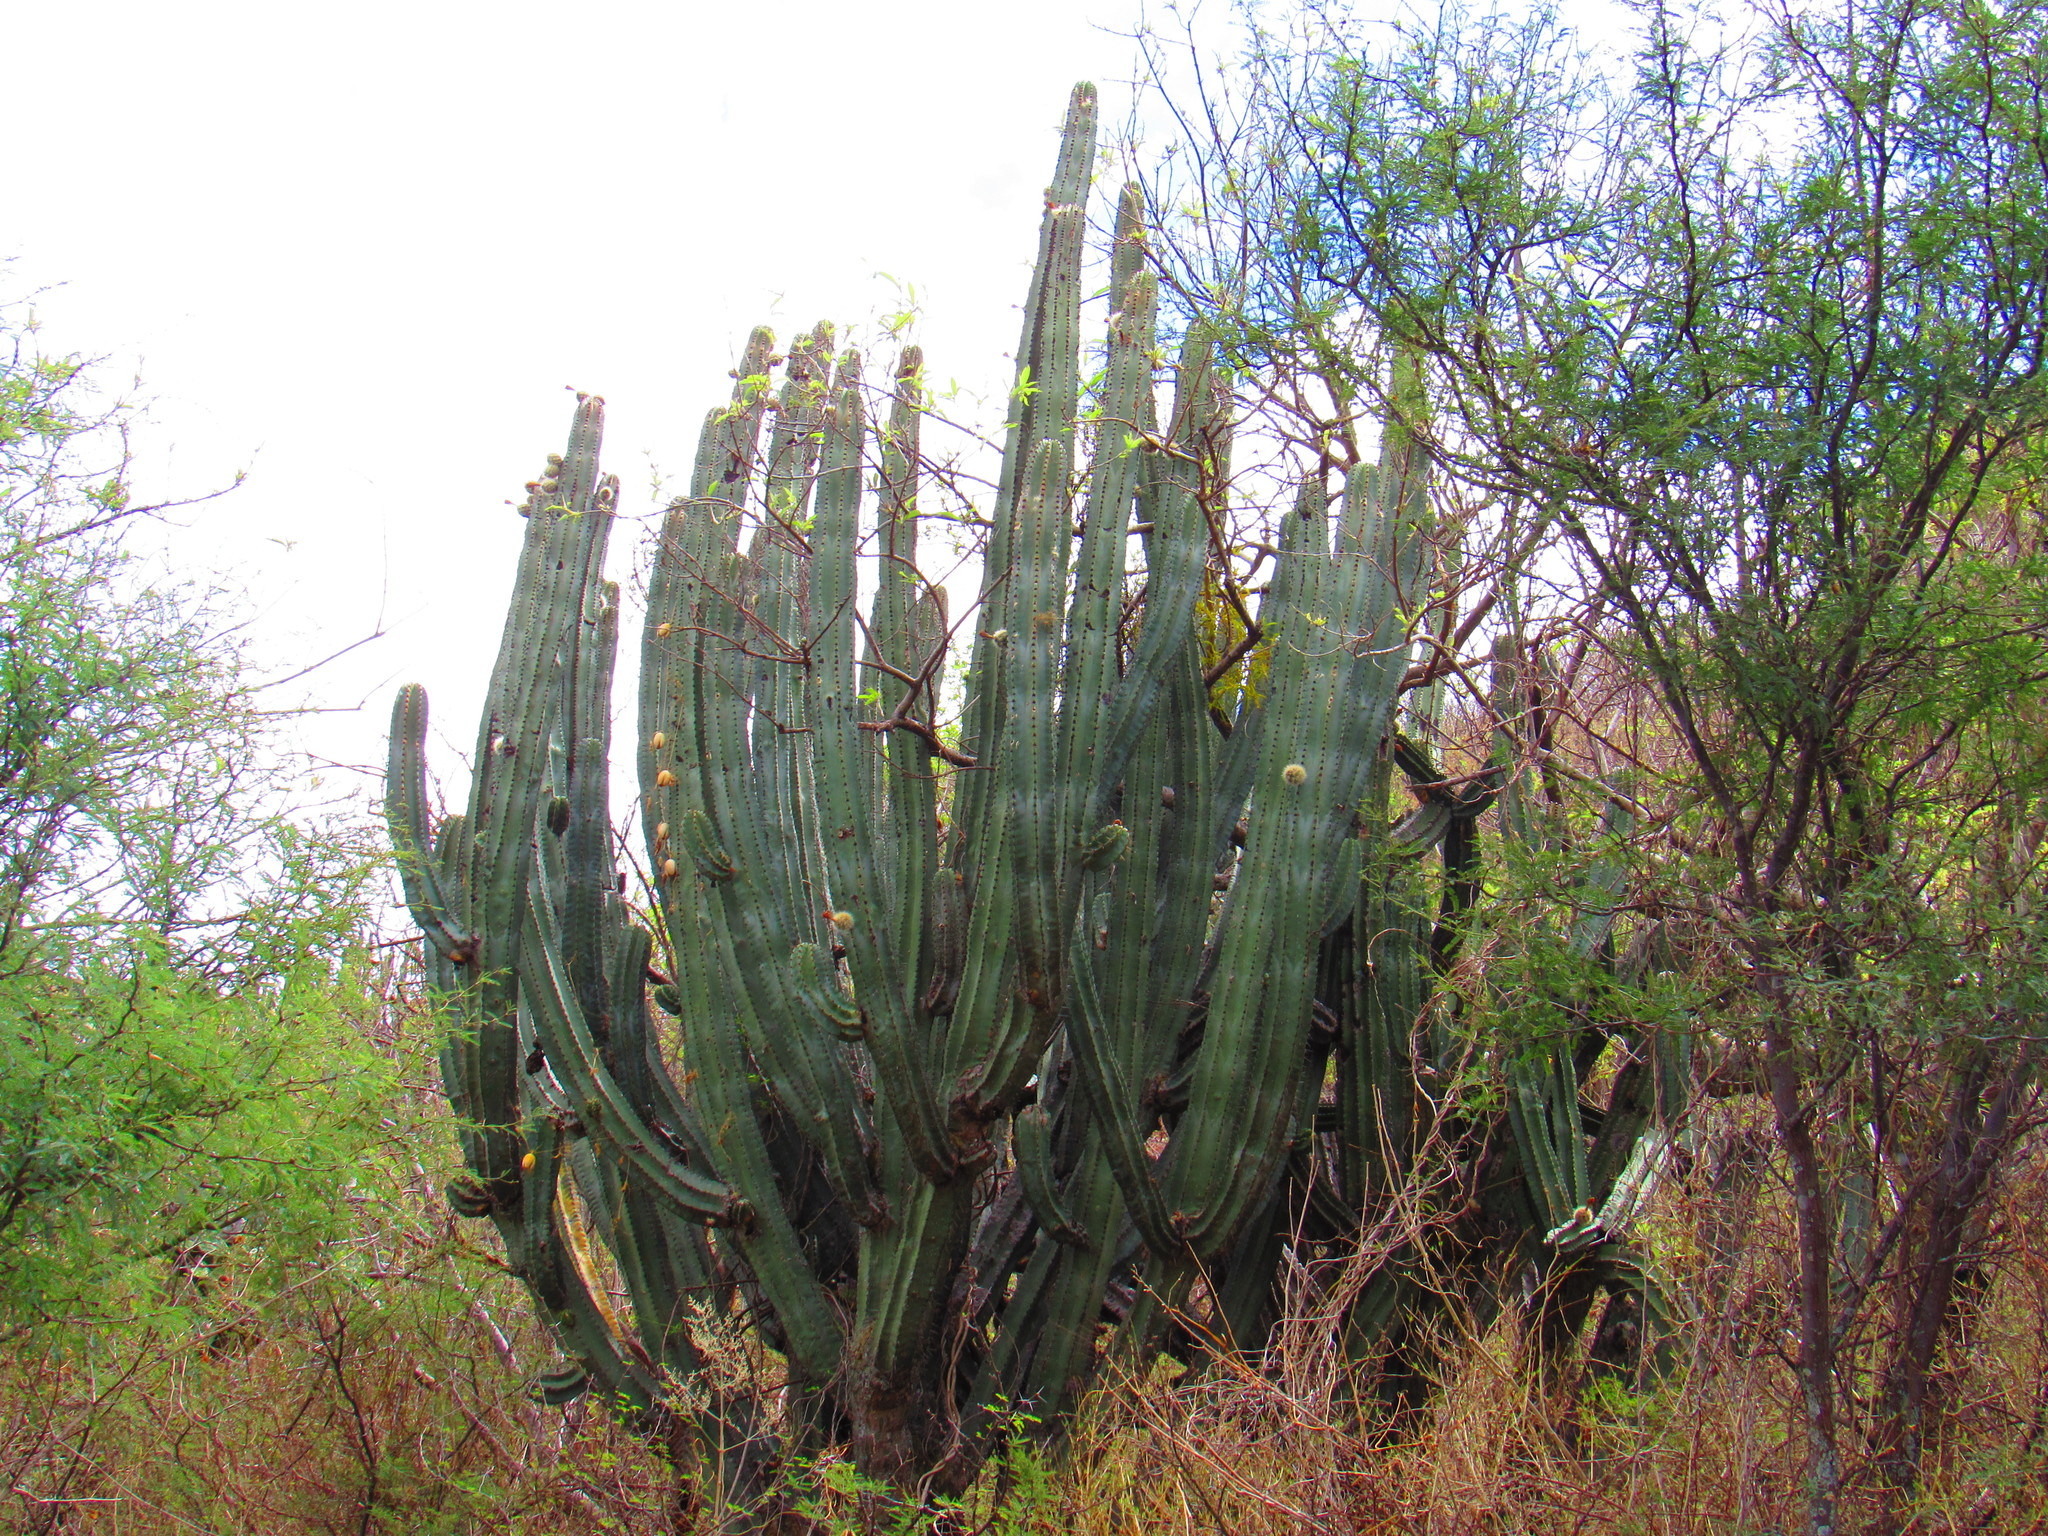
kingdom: Plantae
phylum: Tracheophyta
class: Magnoliopsida
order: Caryophyllales
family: Cactaceae
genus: Stenocereus
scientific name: Stenocereus queretaroensis
